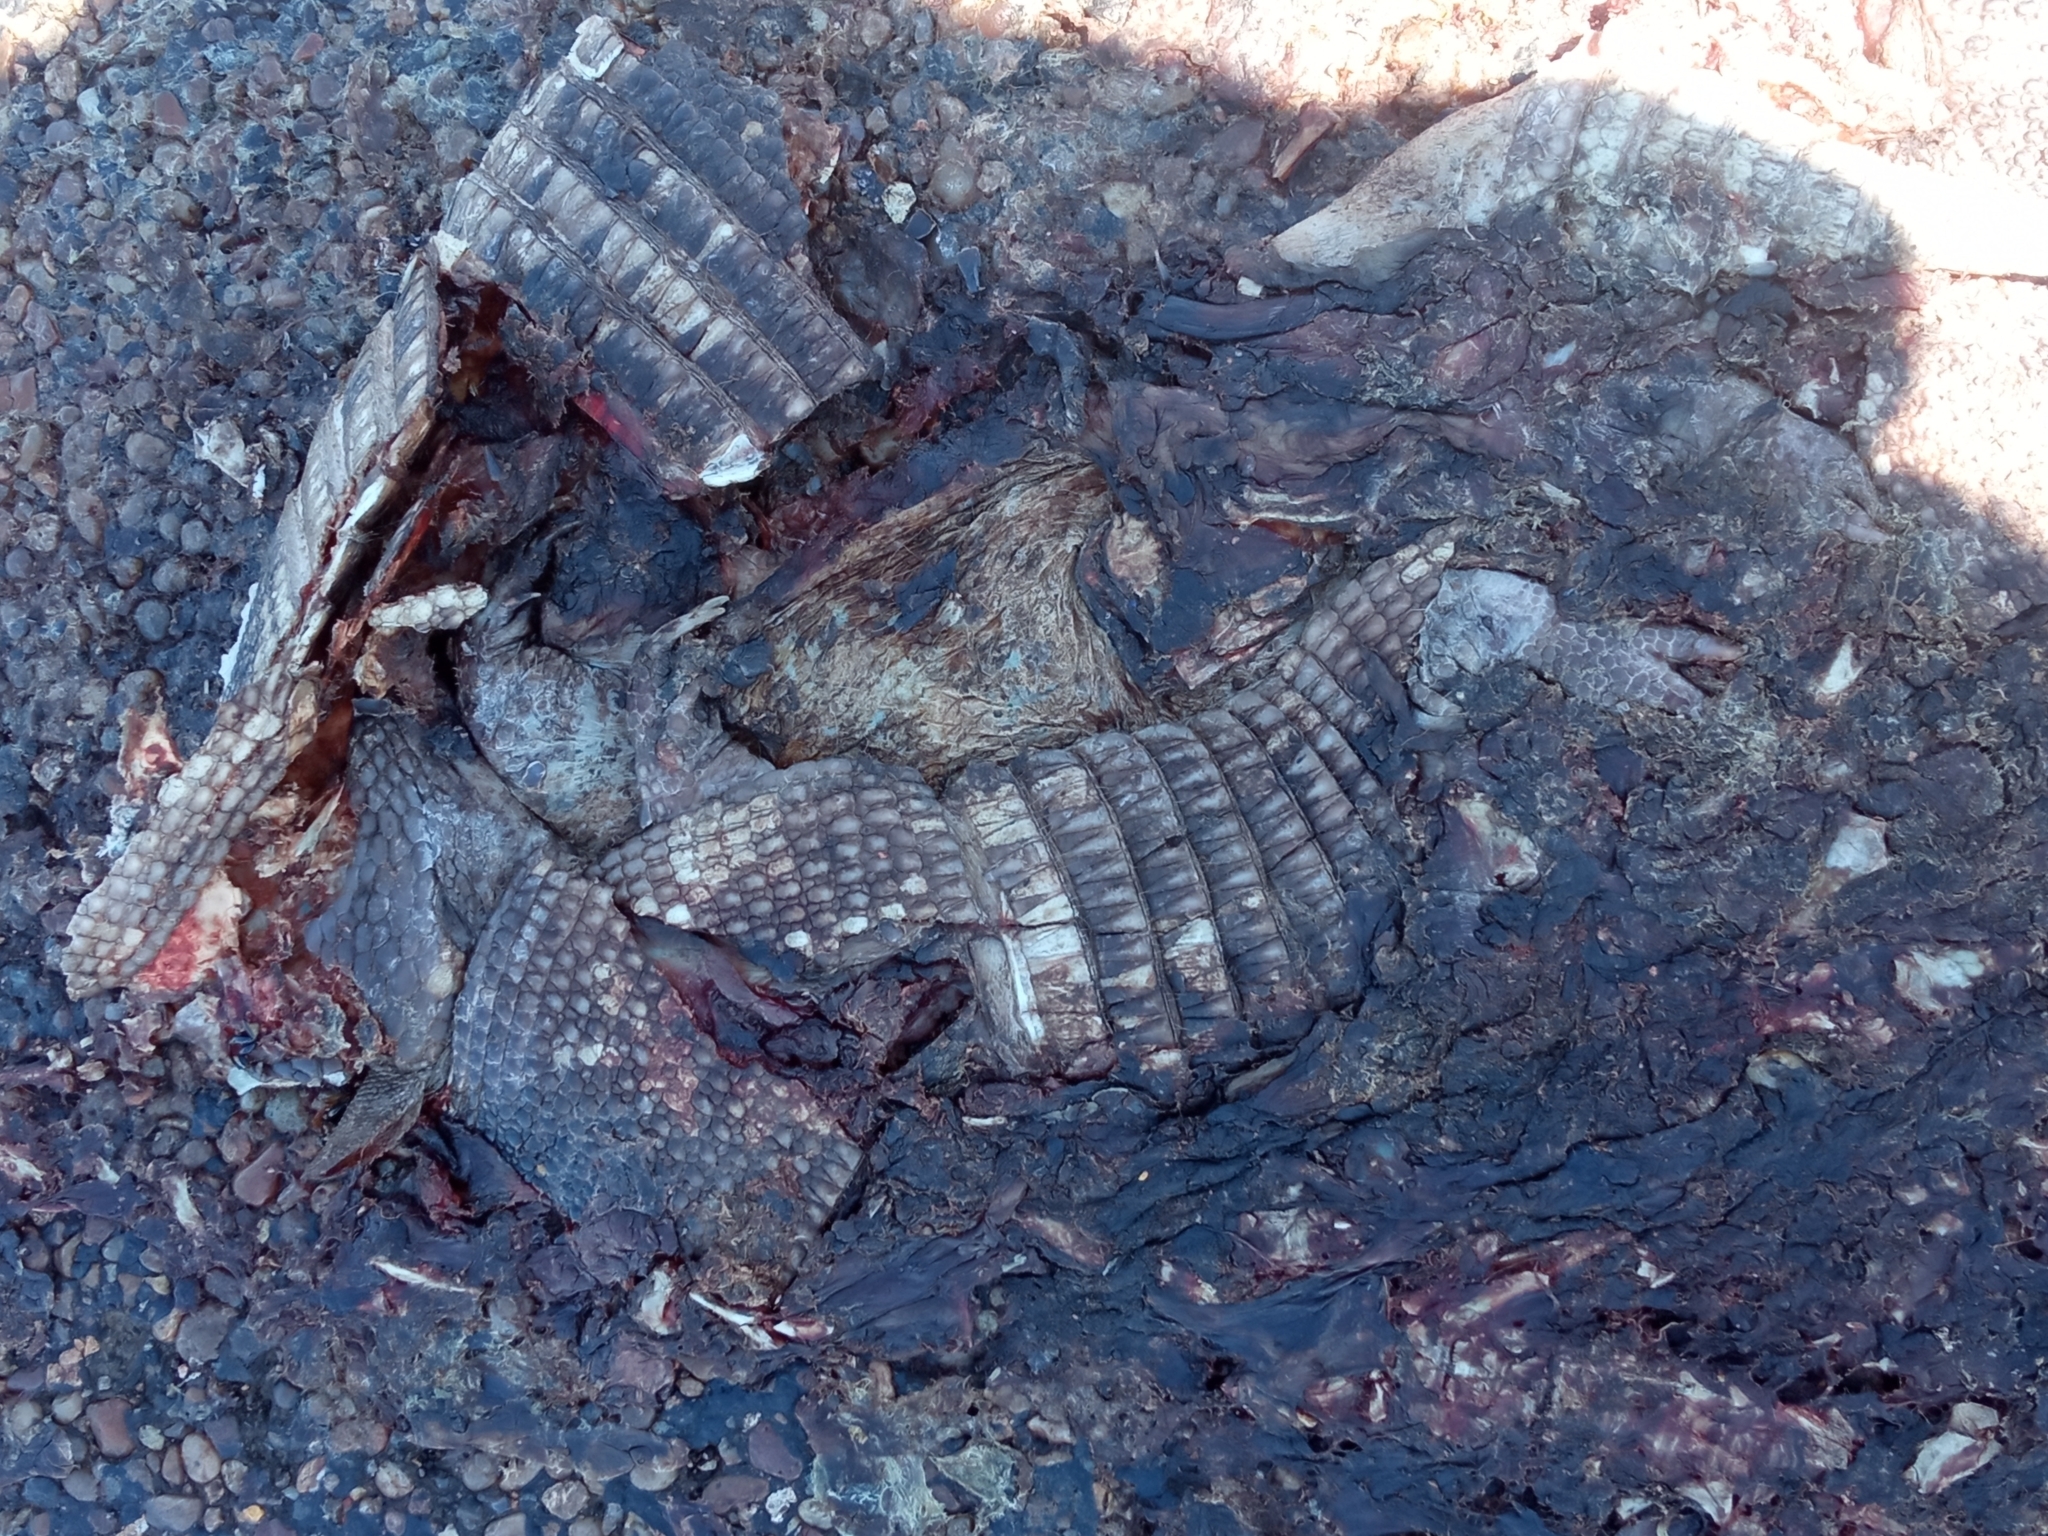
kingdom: Animalia
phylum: Chordata
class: Mammalia
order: Cingulata
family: Dasypodidae
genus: Dasypus
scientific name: Dasypus novemcinctus
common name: Nine-banded armadillo
